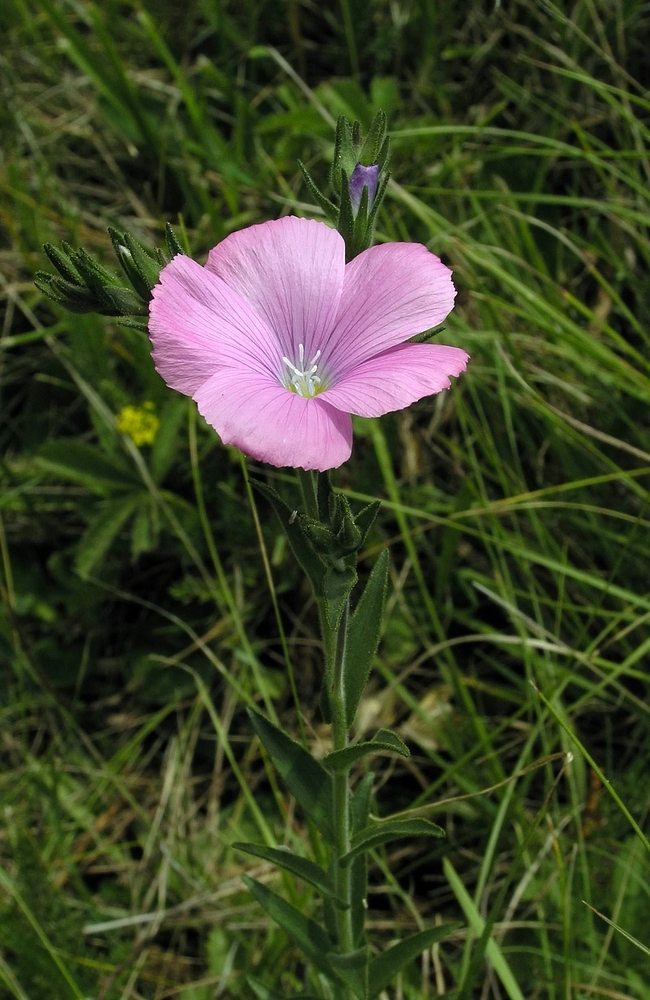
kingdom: Plantae
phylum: Tracheophyta
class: Magnoliopsida
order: Malpighiales
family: Linaceae
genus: Linum
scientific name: Linum viscosum
